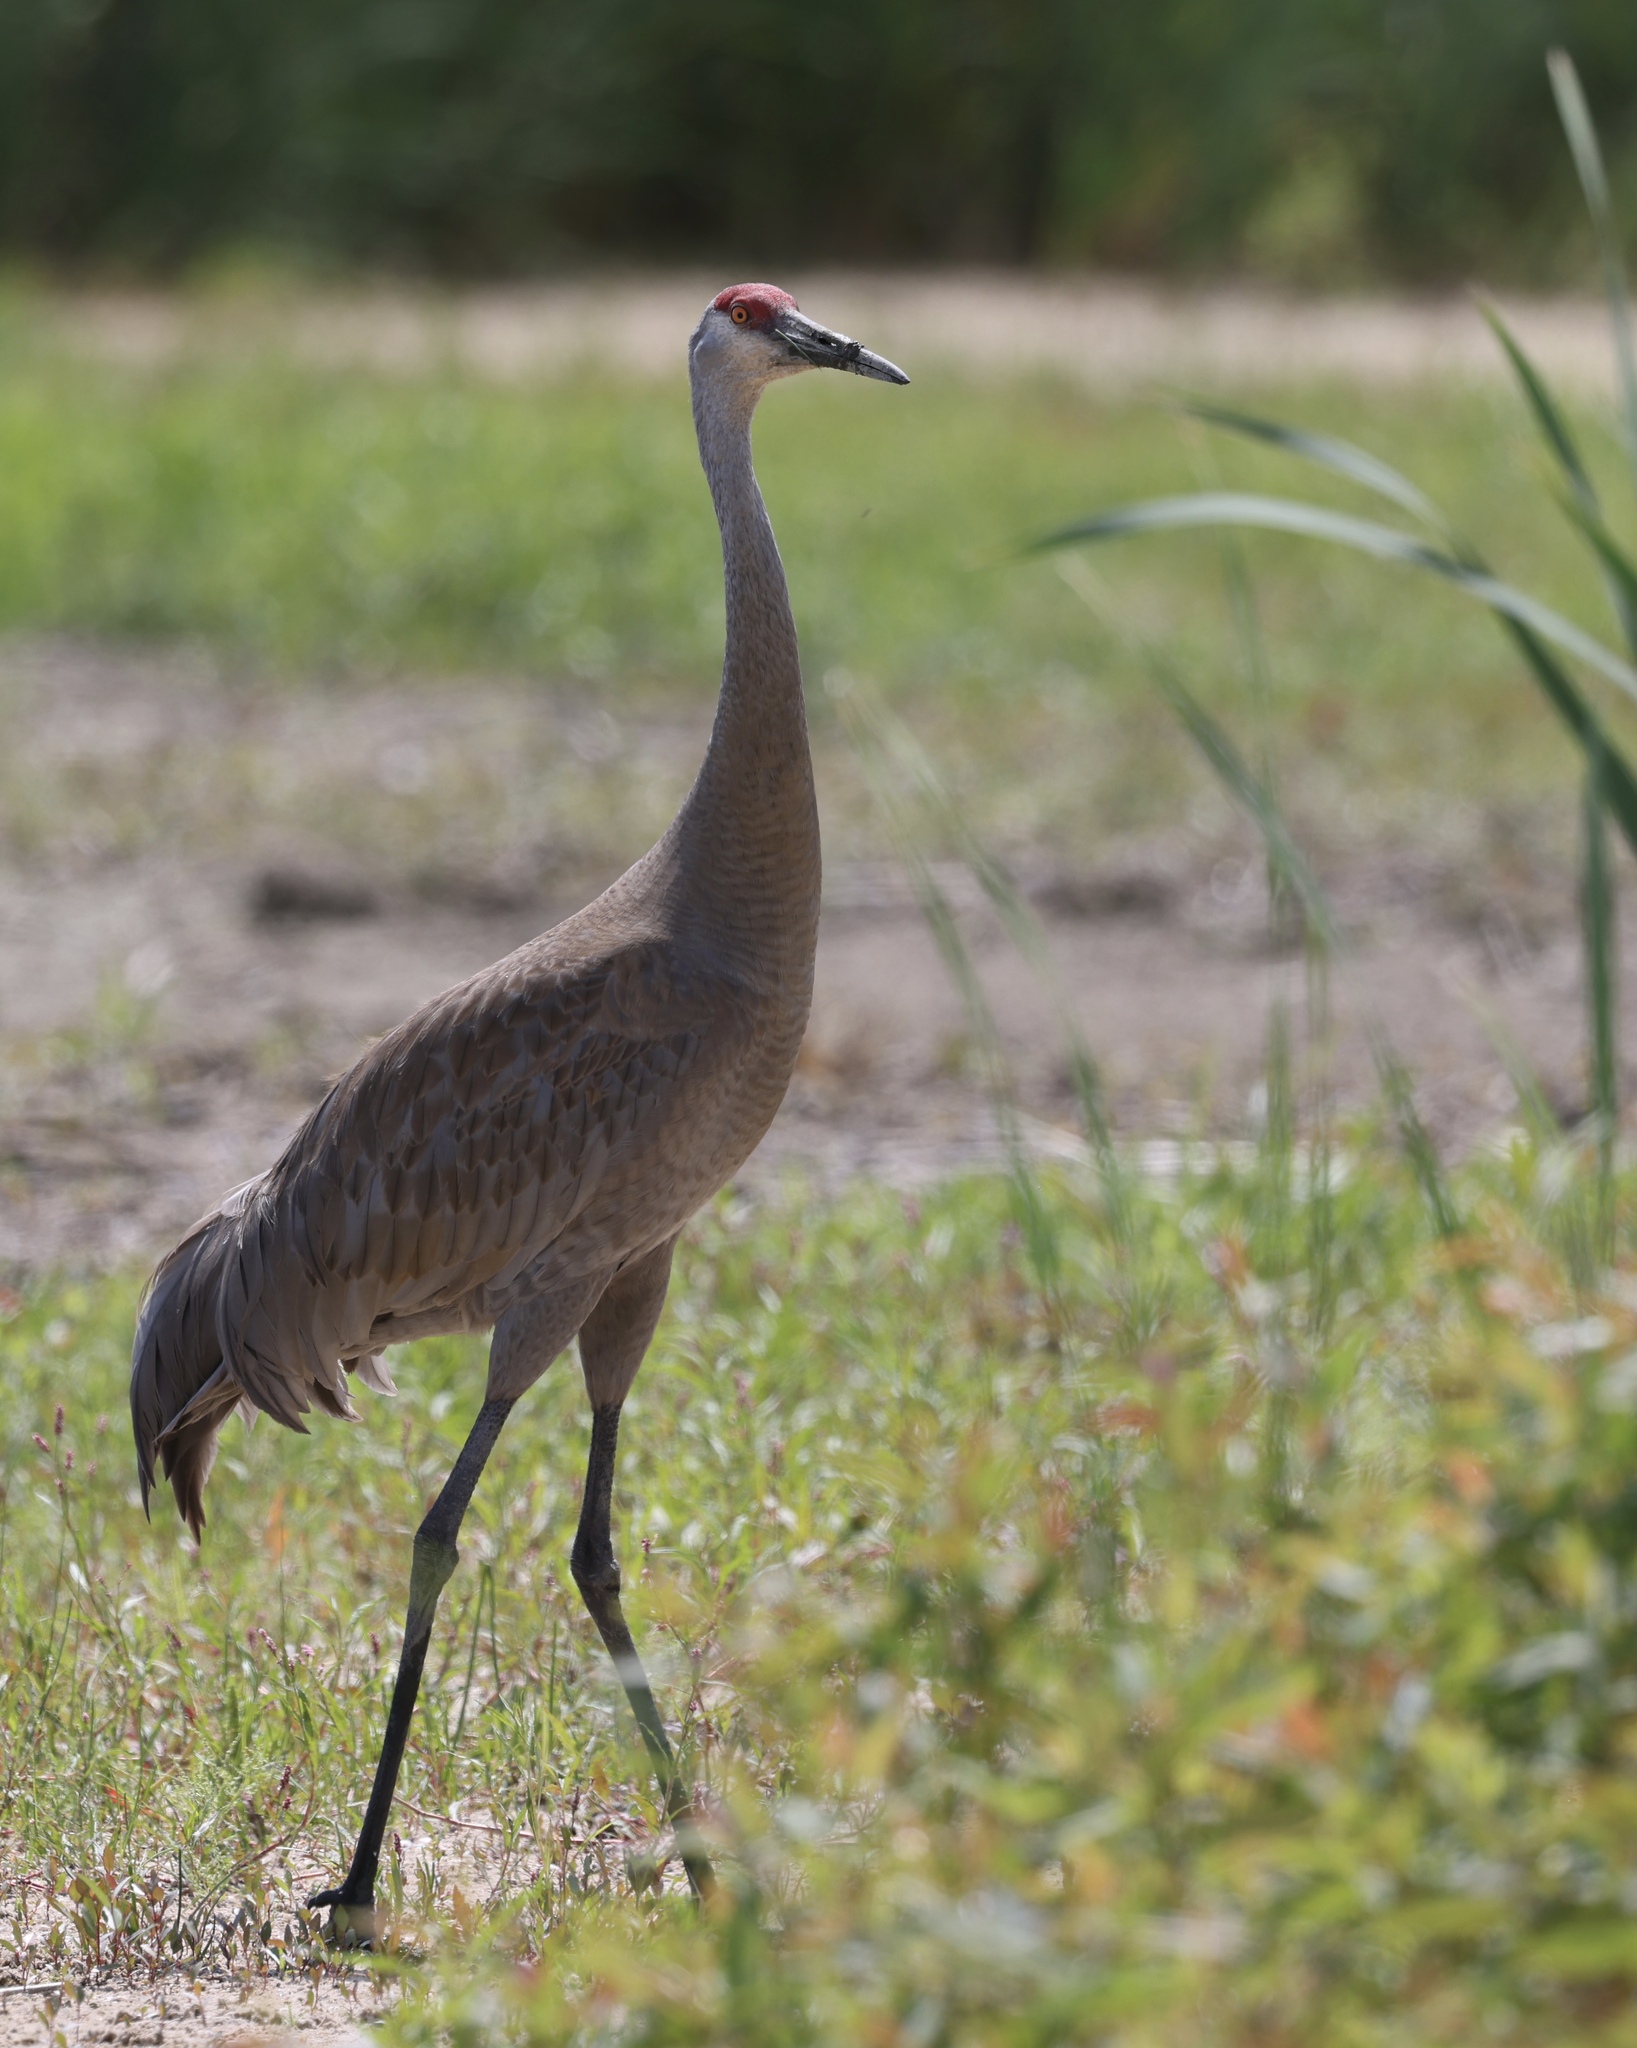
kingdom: Animalia
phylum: Chordata
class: Aves
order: Gruiformes
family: Gruidae
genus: Grus
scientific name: Grus canadensis
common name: Sandhill crane
